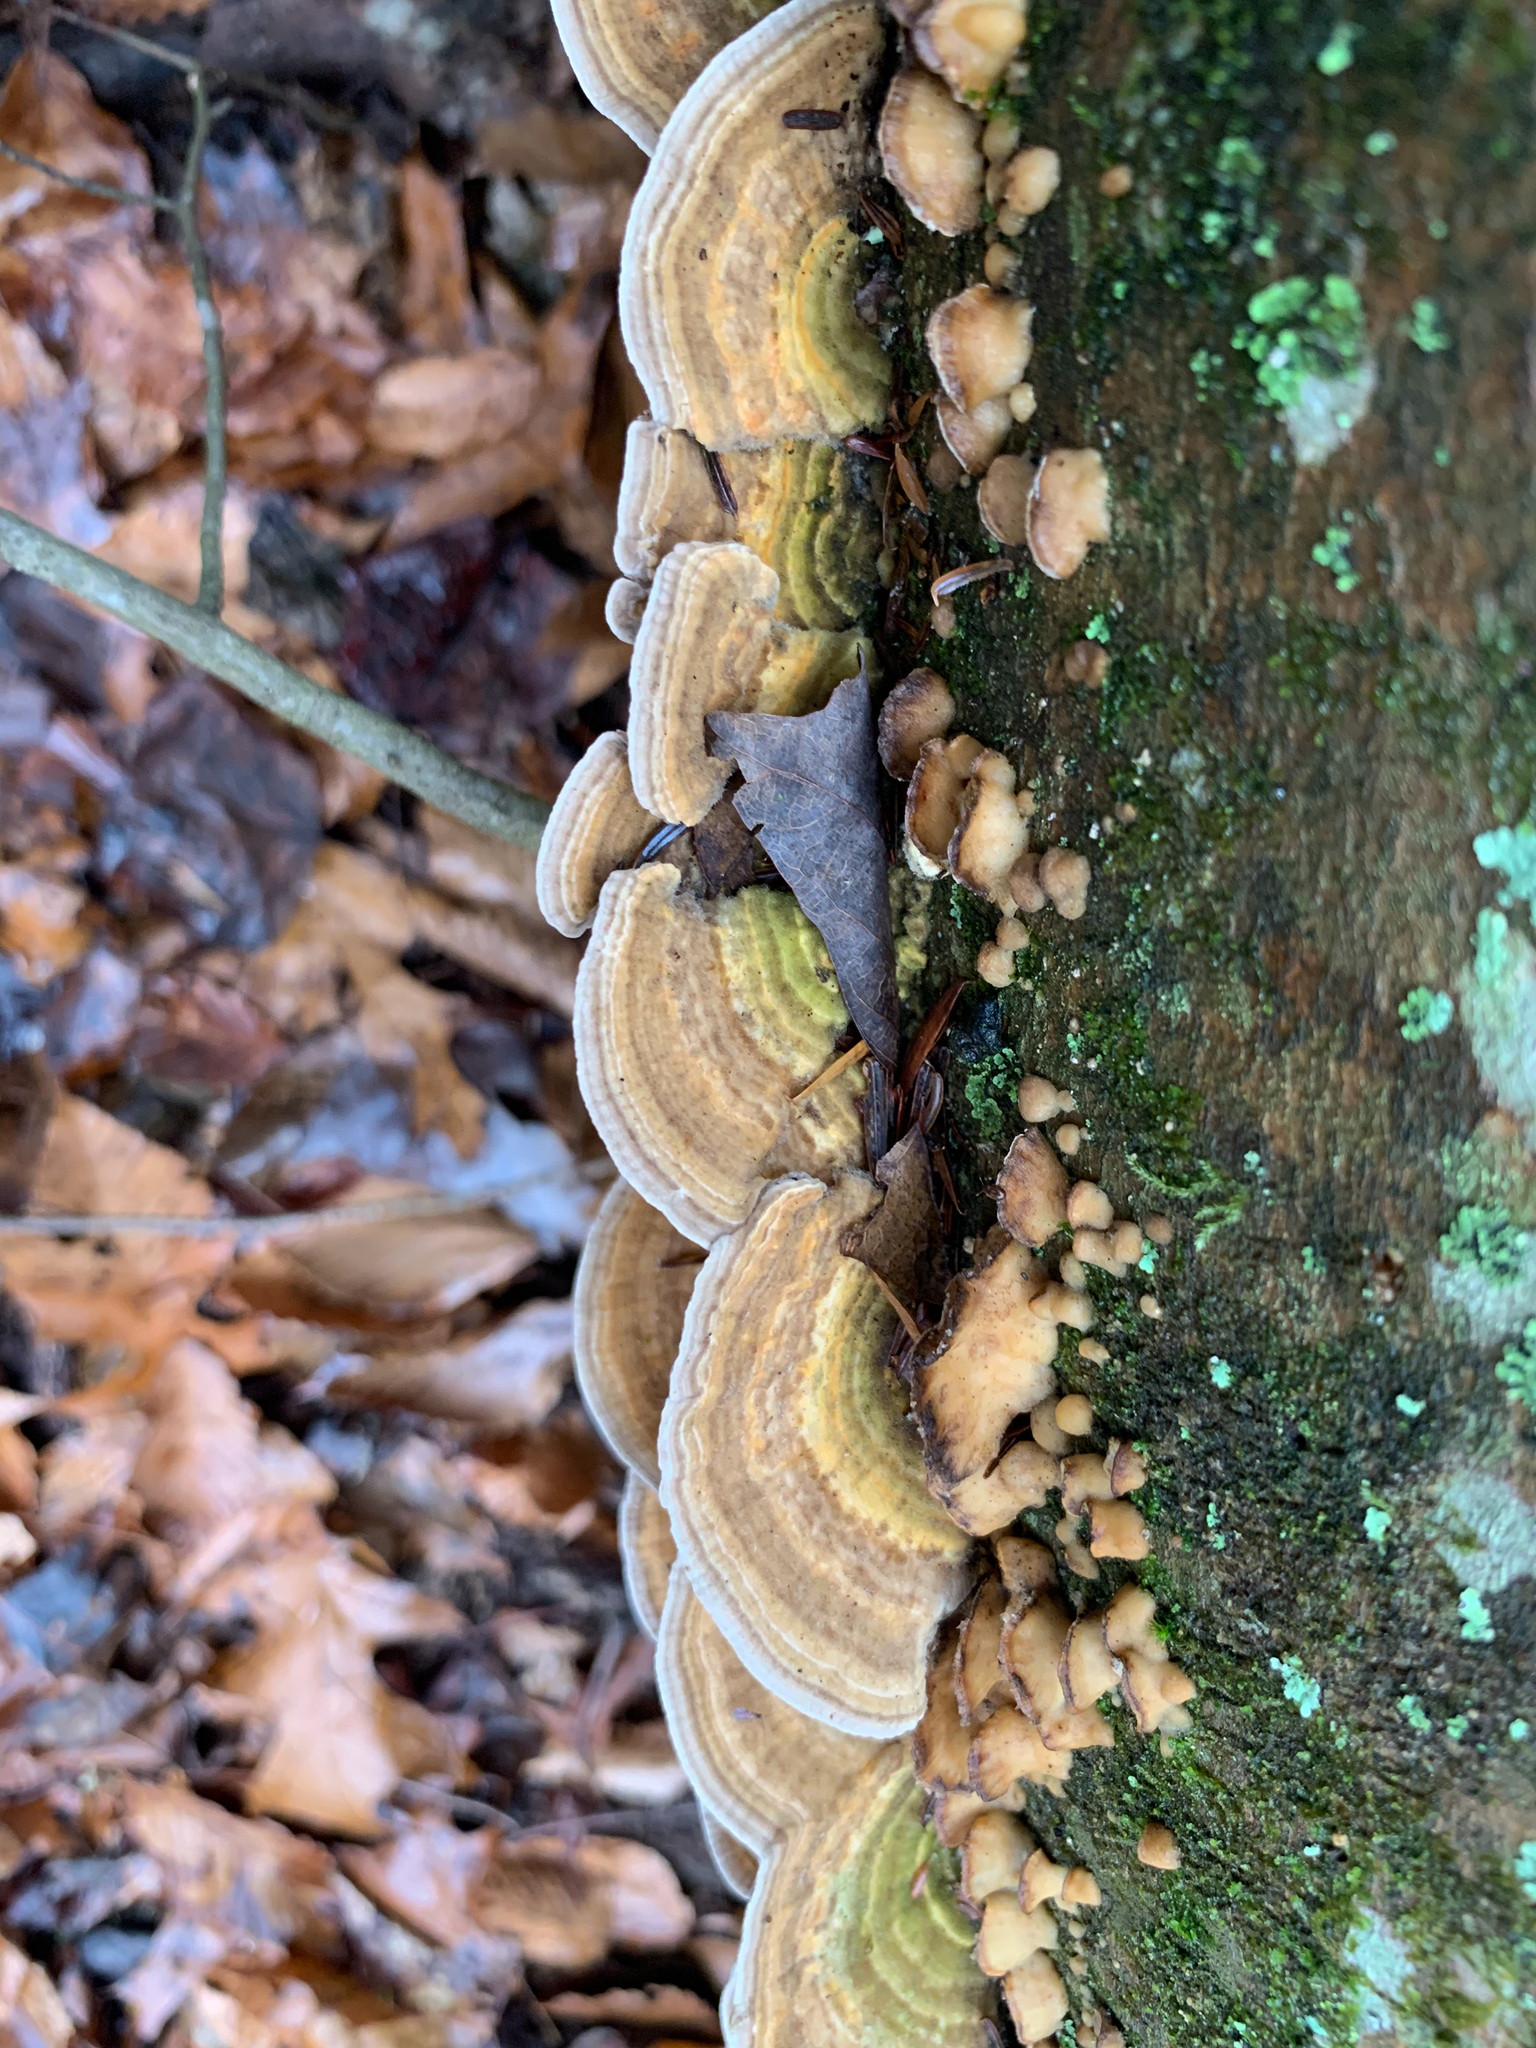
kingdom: Fungi
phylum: Basidiomycota
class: Agaricomycetes
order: Polyporales
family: Polyporaceae
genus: Lenzites
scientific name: Lenzites betulinus
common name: Birch mazegill
